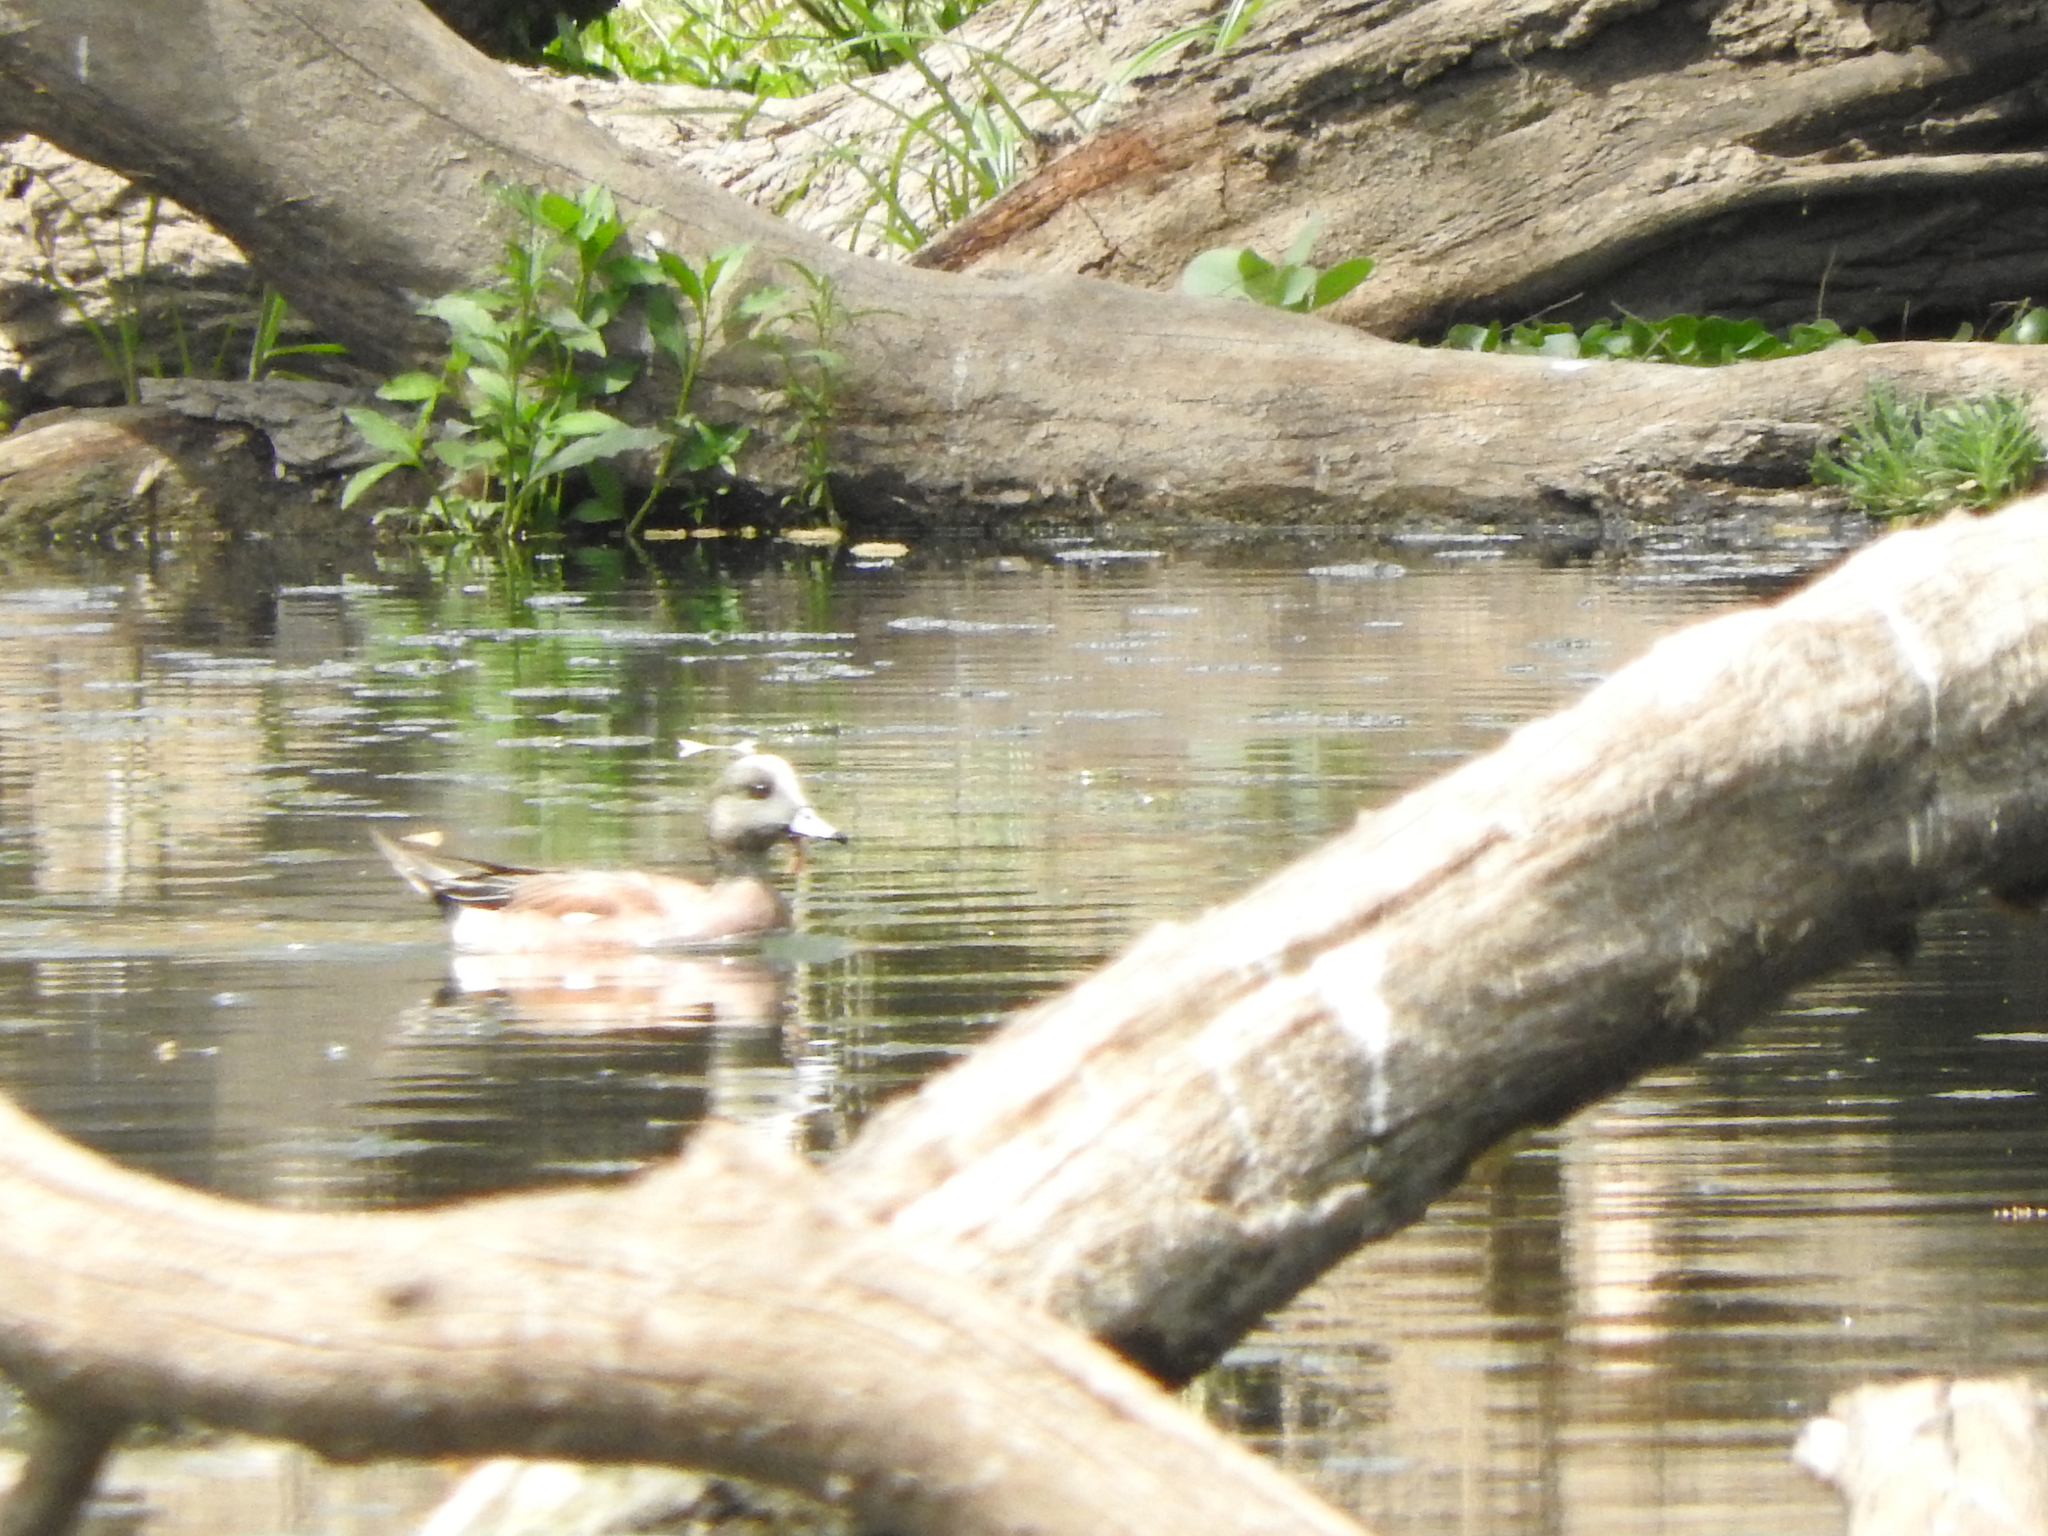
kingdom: Animalia
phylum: Chordata
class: Aves
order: Anseriformes
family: Anatidae
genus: Mareca
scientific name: Mareca americana
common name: American wigeon
